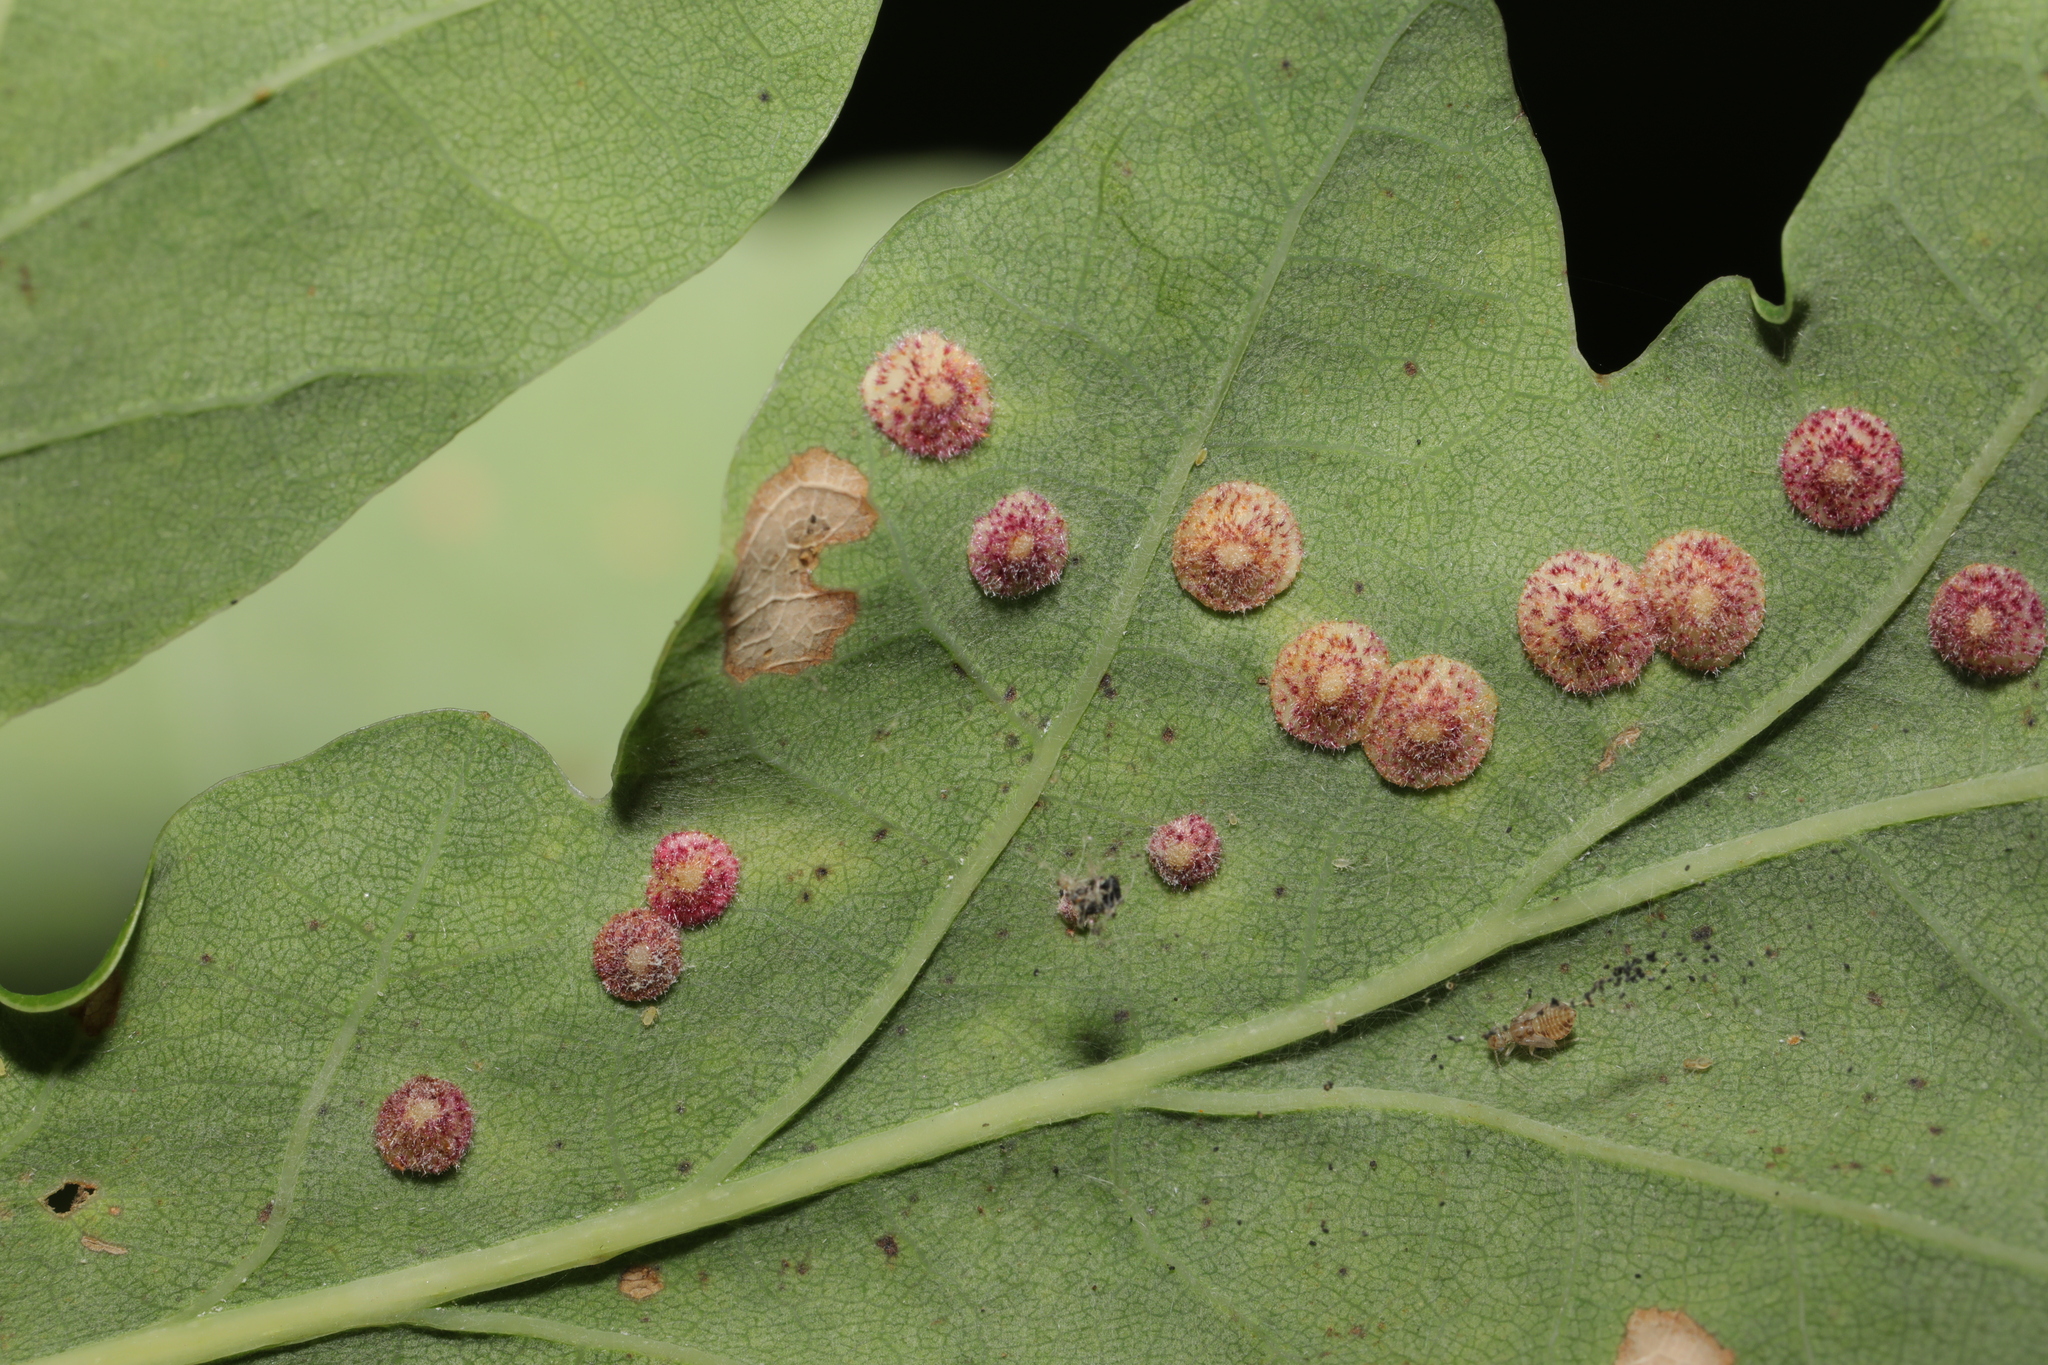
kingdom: Animalia
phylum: Arthropoda
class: Insecta
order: Hymenoptera
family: Cynipidae
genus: Neuroterus
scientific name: Neuroterus quercusbaccarum
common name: Common spangle gall
